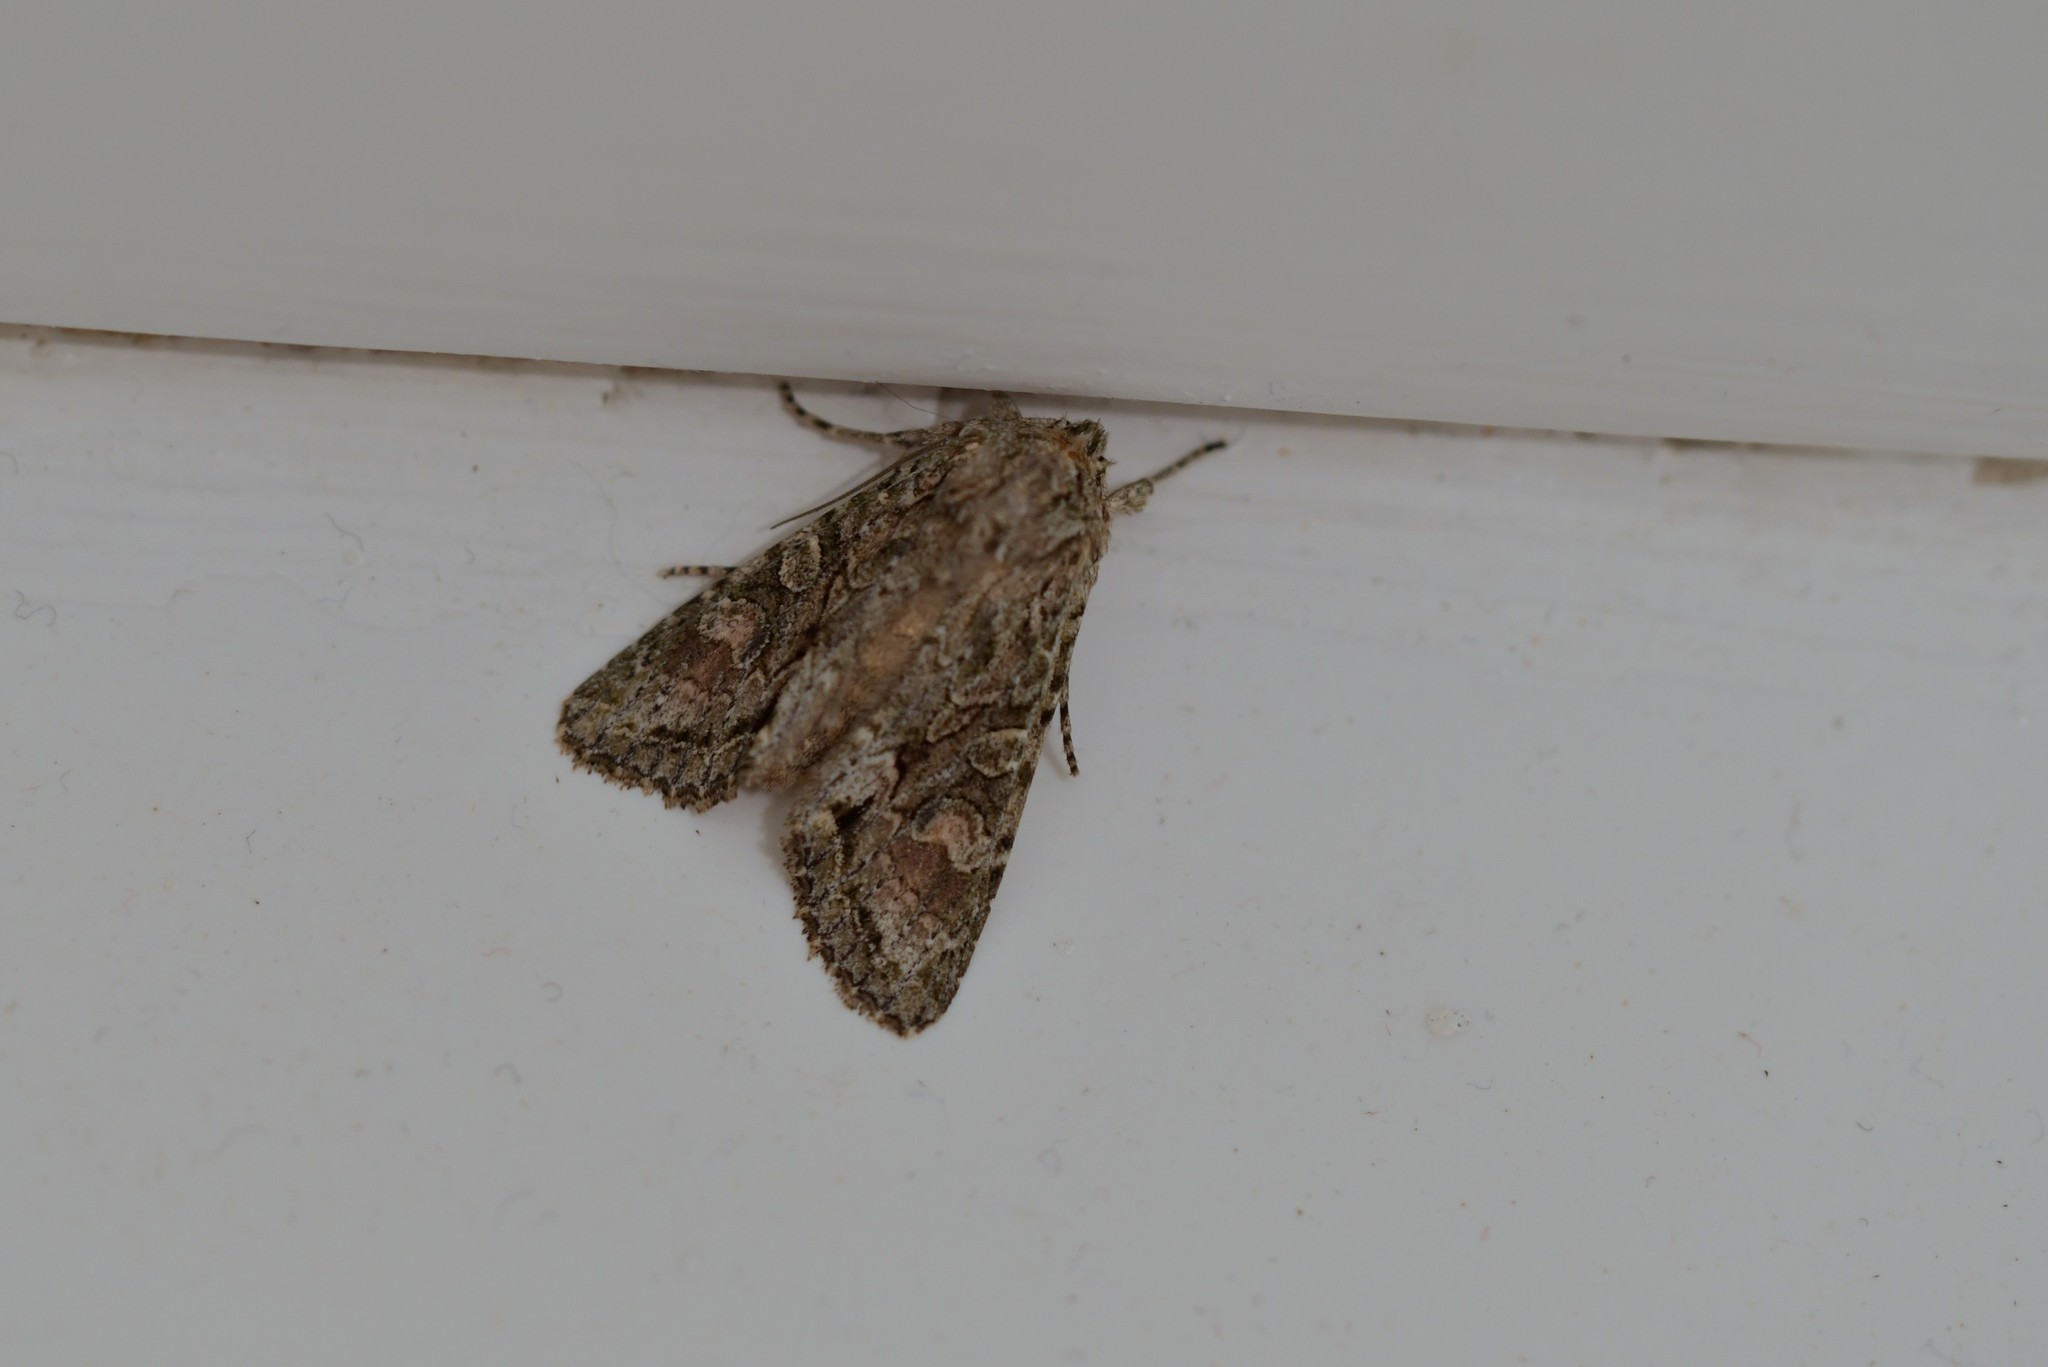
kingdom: Animalia
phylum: Arthropoda
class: Insecta
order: Lepidoptera
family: Noctuidae
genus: Ichneutica
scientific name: Ichneutica mutans
